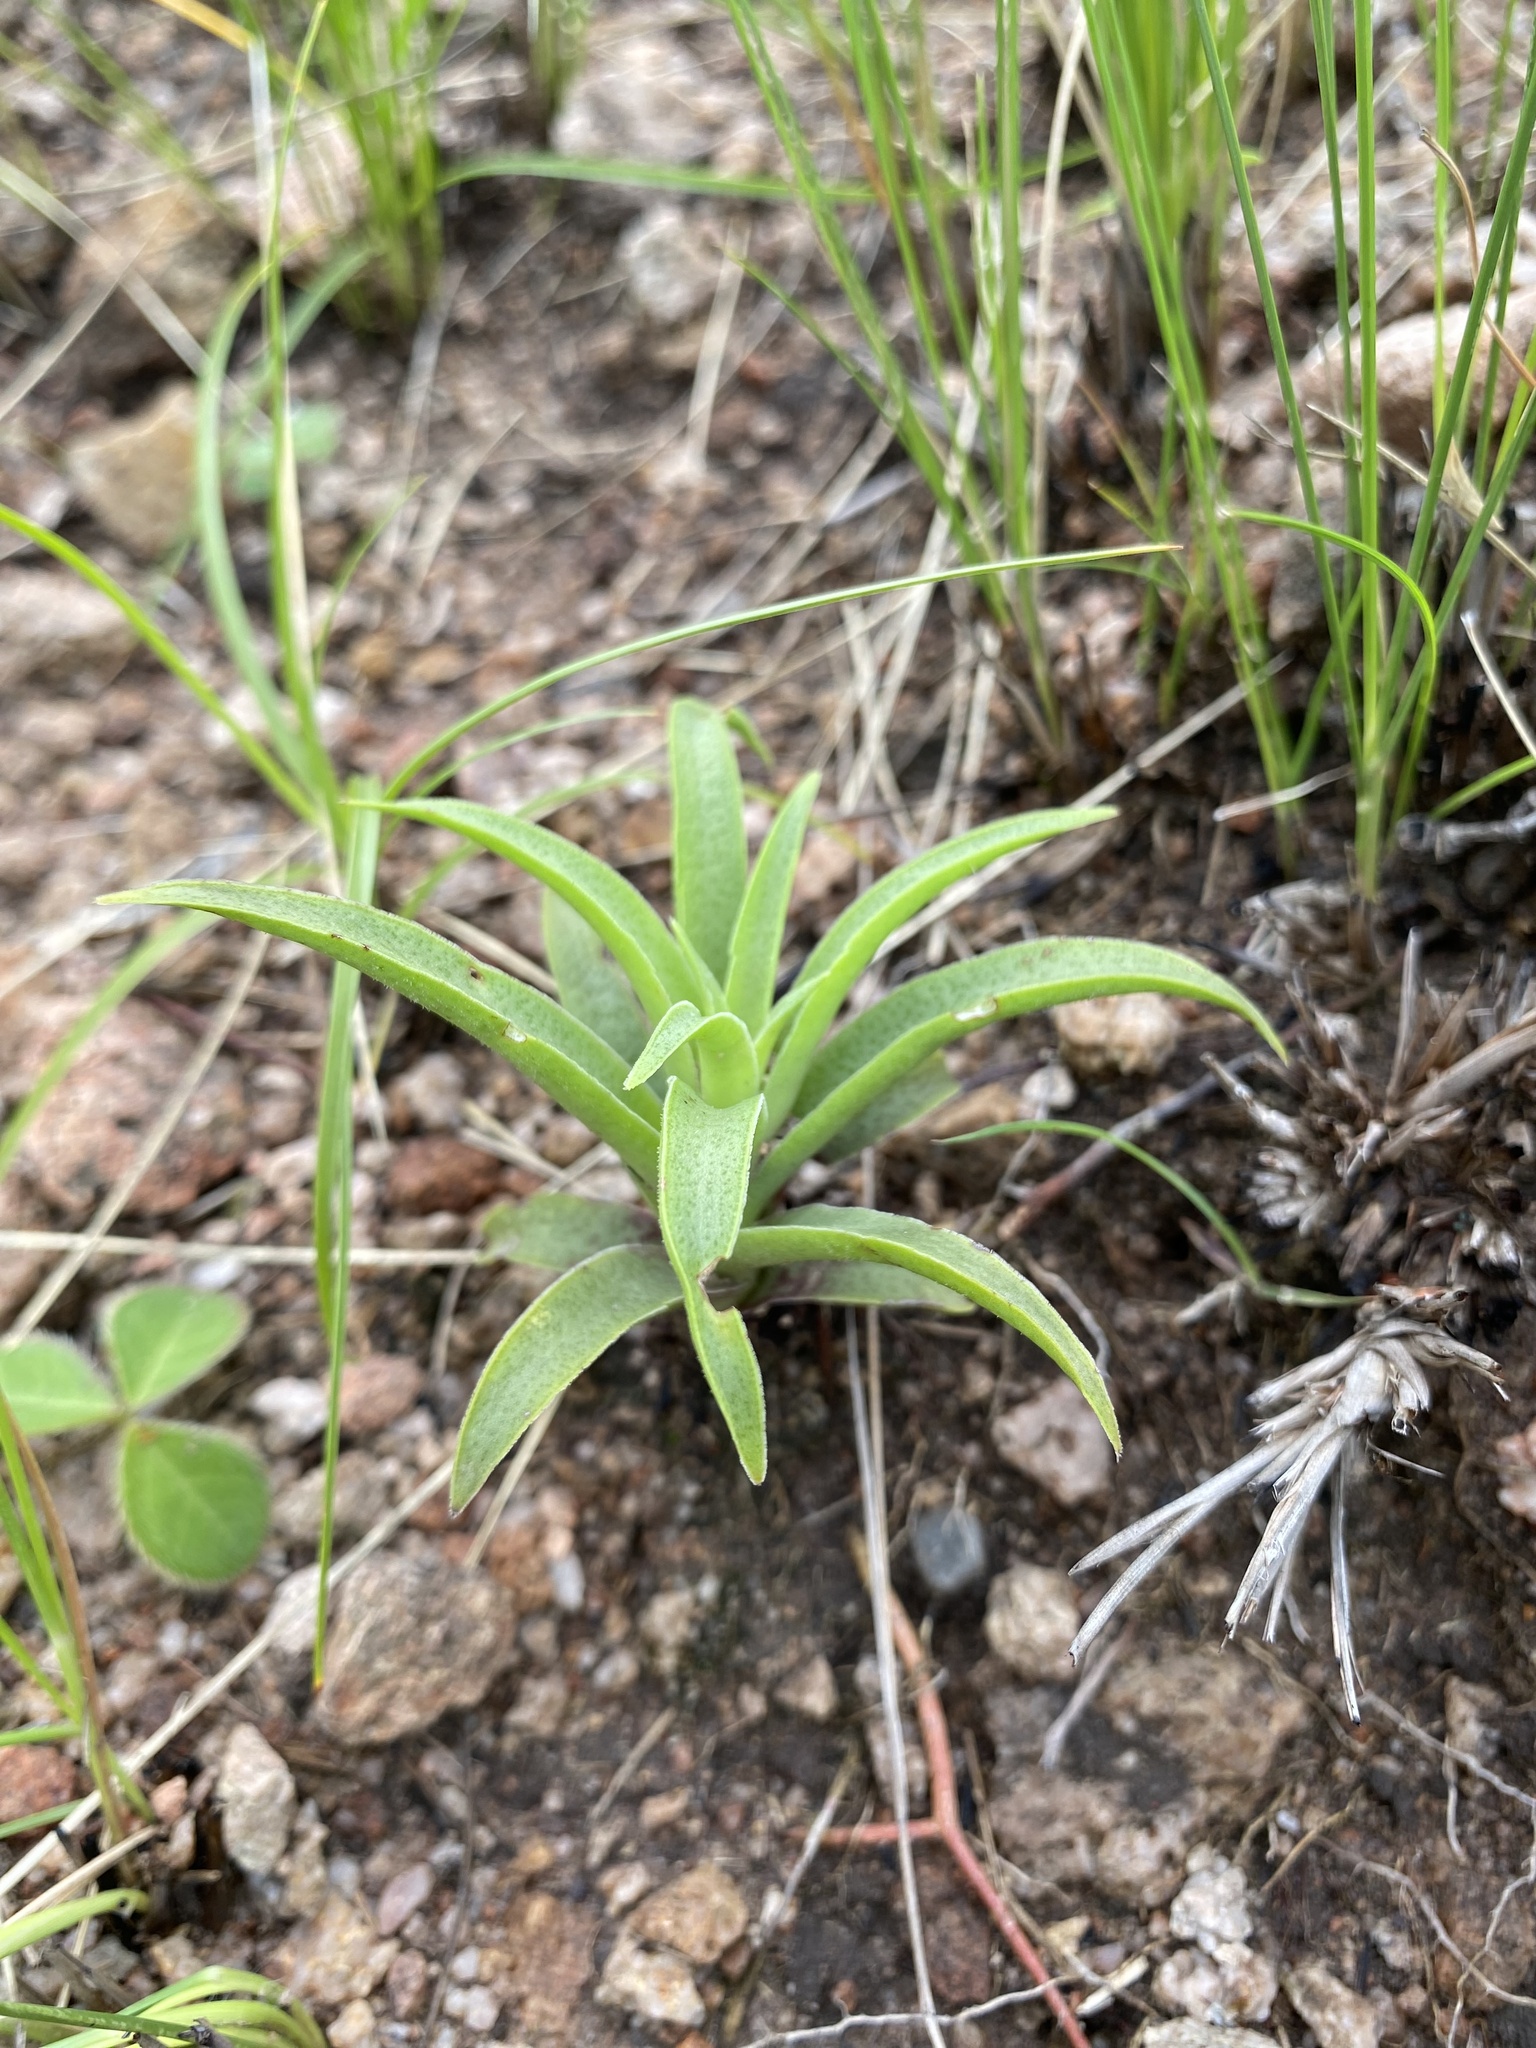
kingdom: Plantae
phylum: Tracheophyta
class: Magnoliopsida
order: Saxifragales
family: Crassulaceae
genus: Crassula
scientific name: Crassula alba
